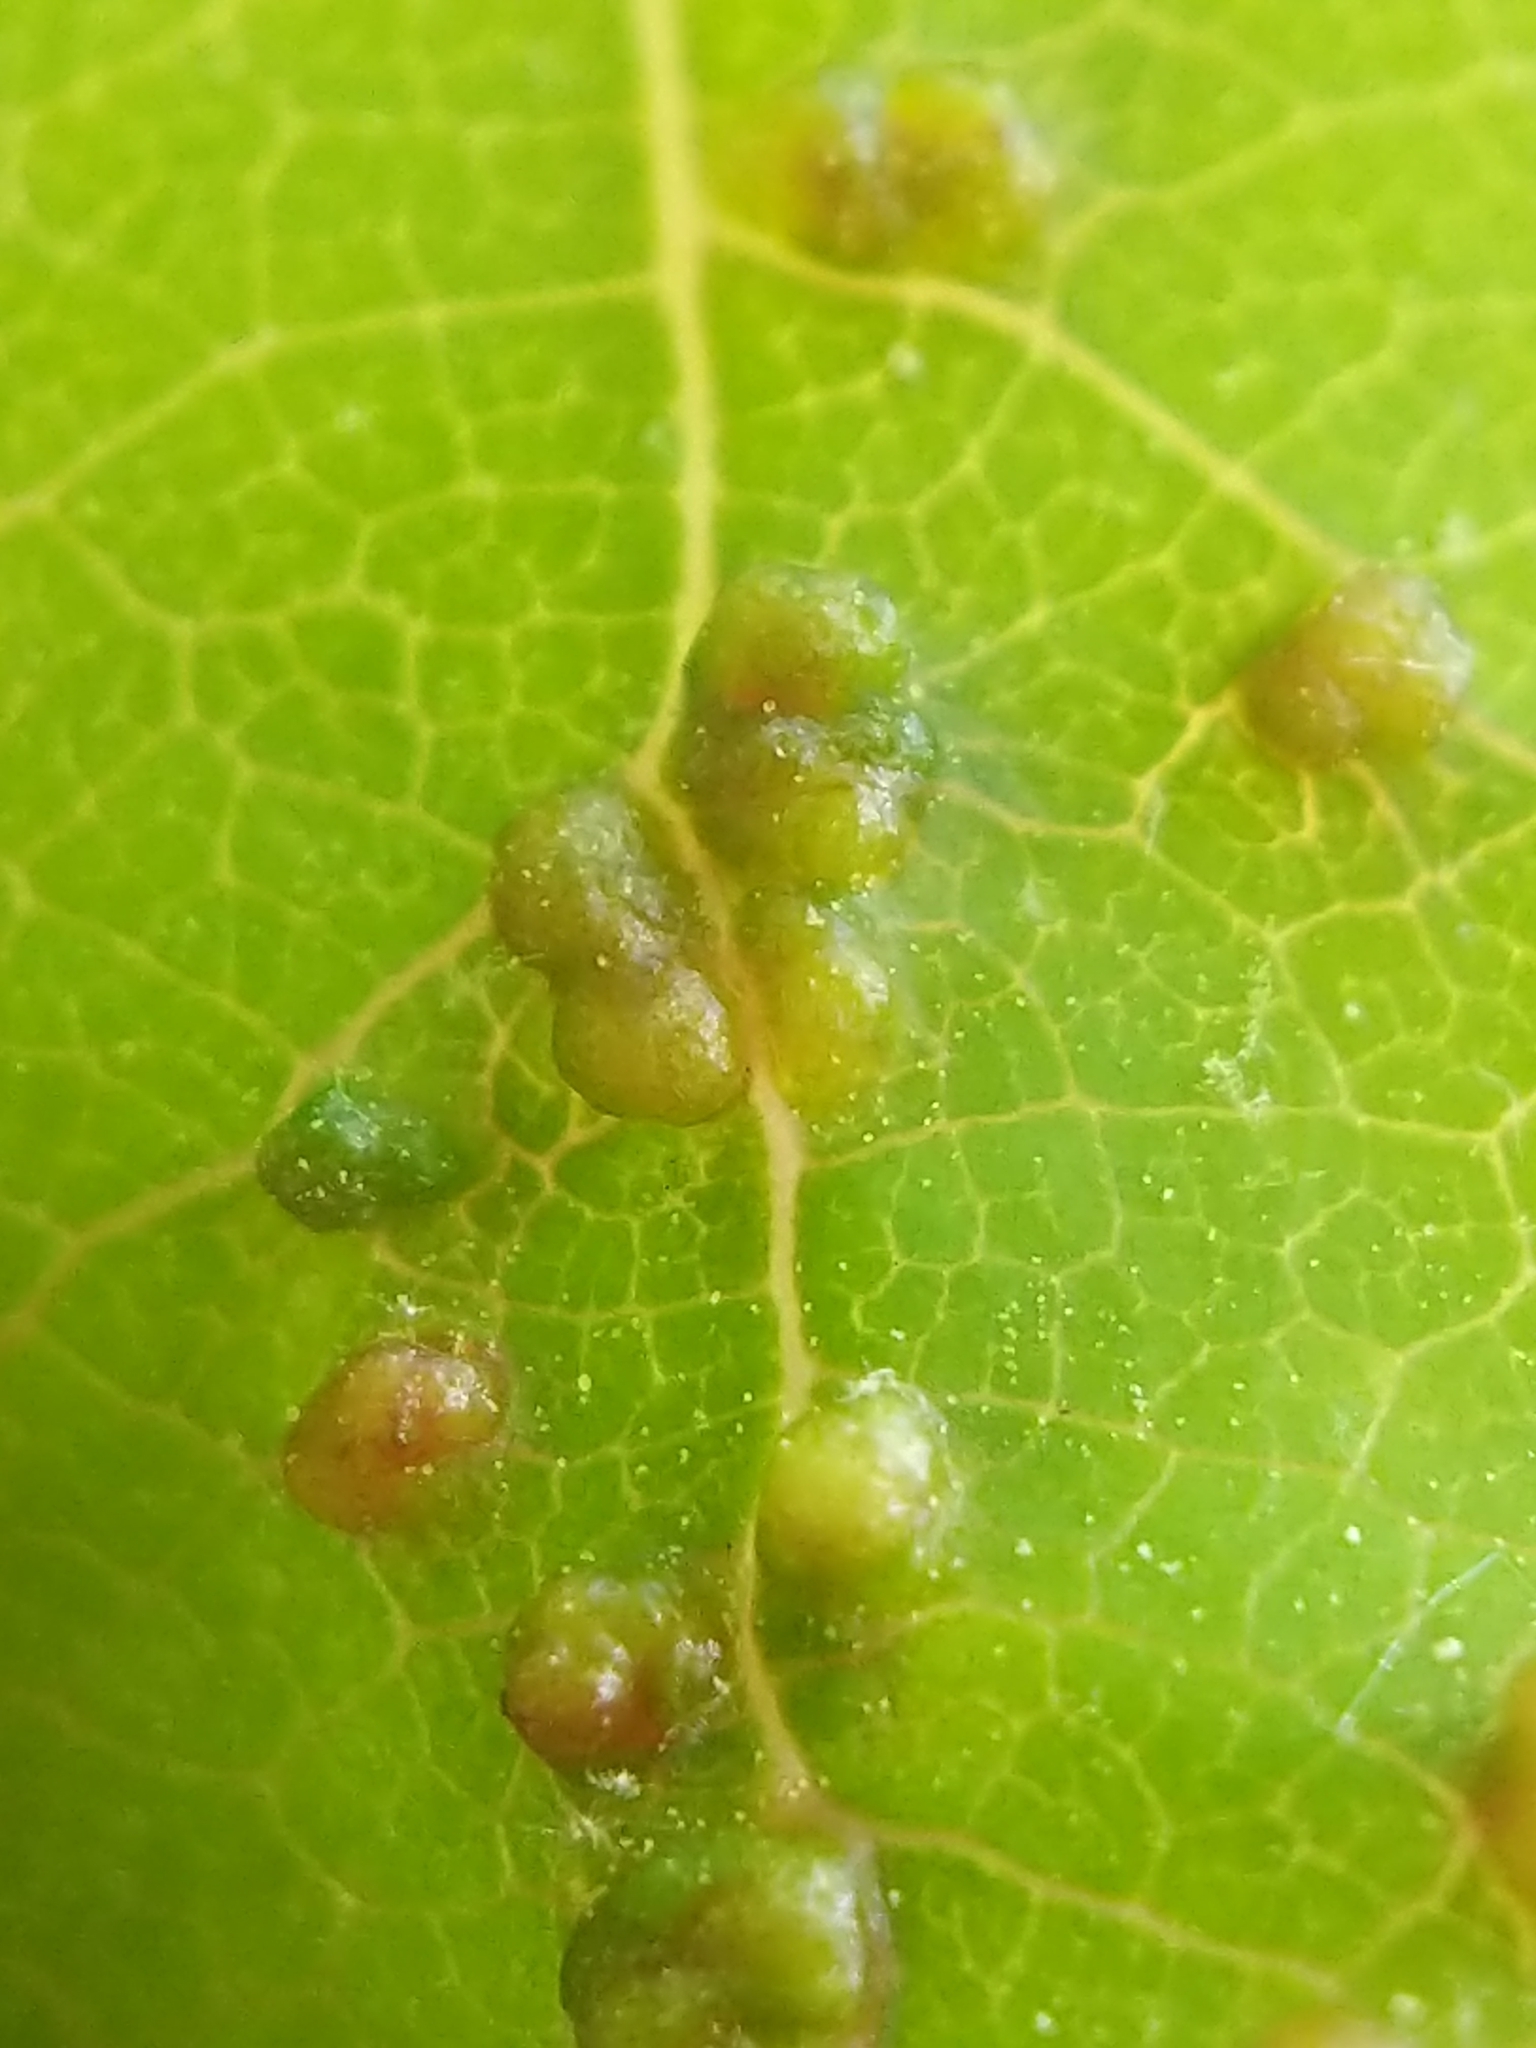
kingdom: Animalia
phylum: Arthropoda
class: Arachnida
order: Trombidiformes
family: Eriophyidae
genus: Aceria
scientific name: Aceria
